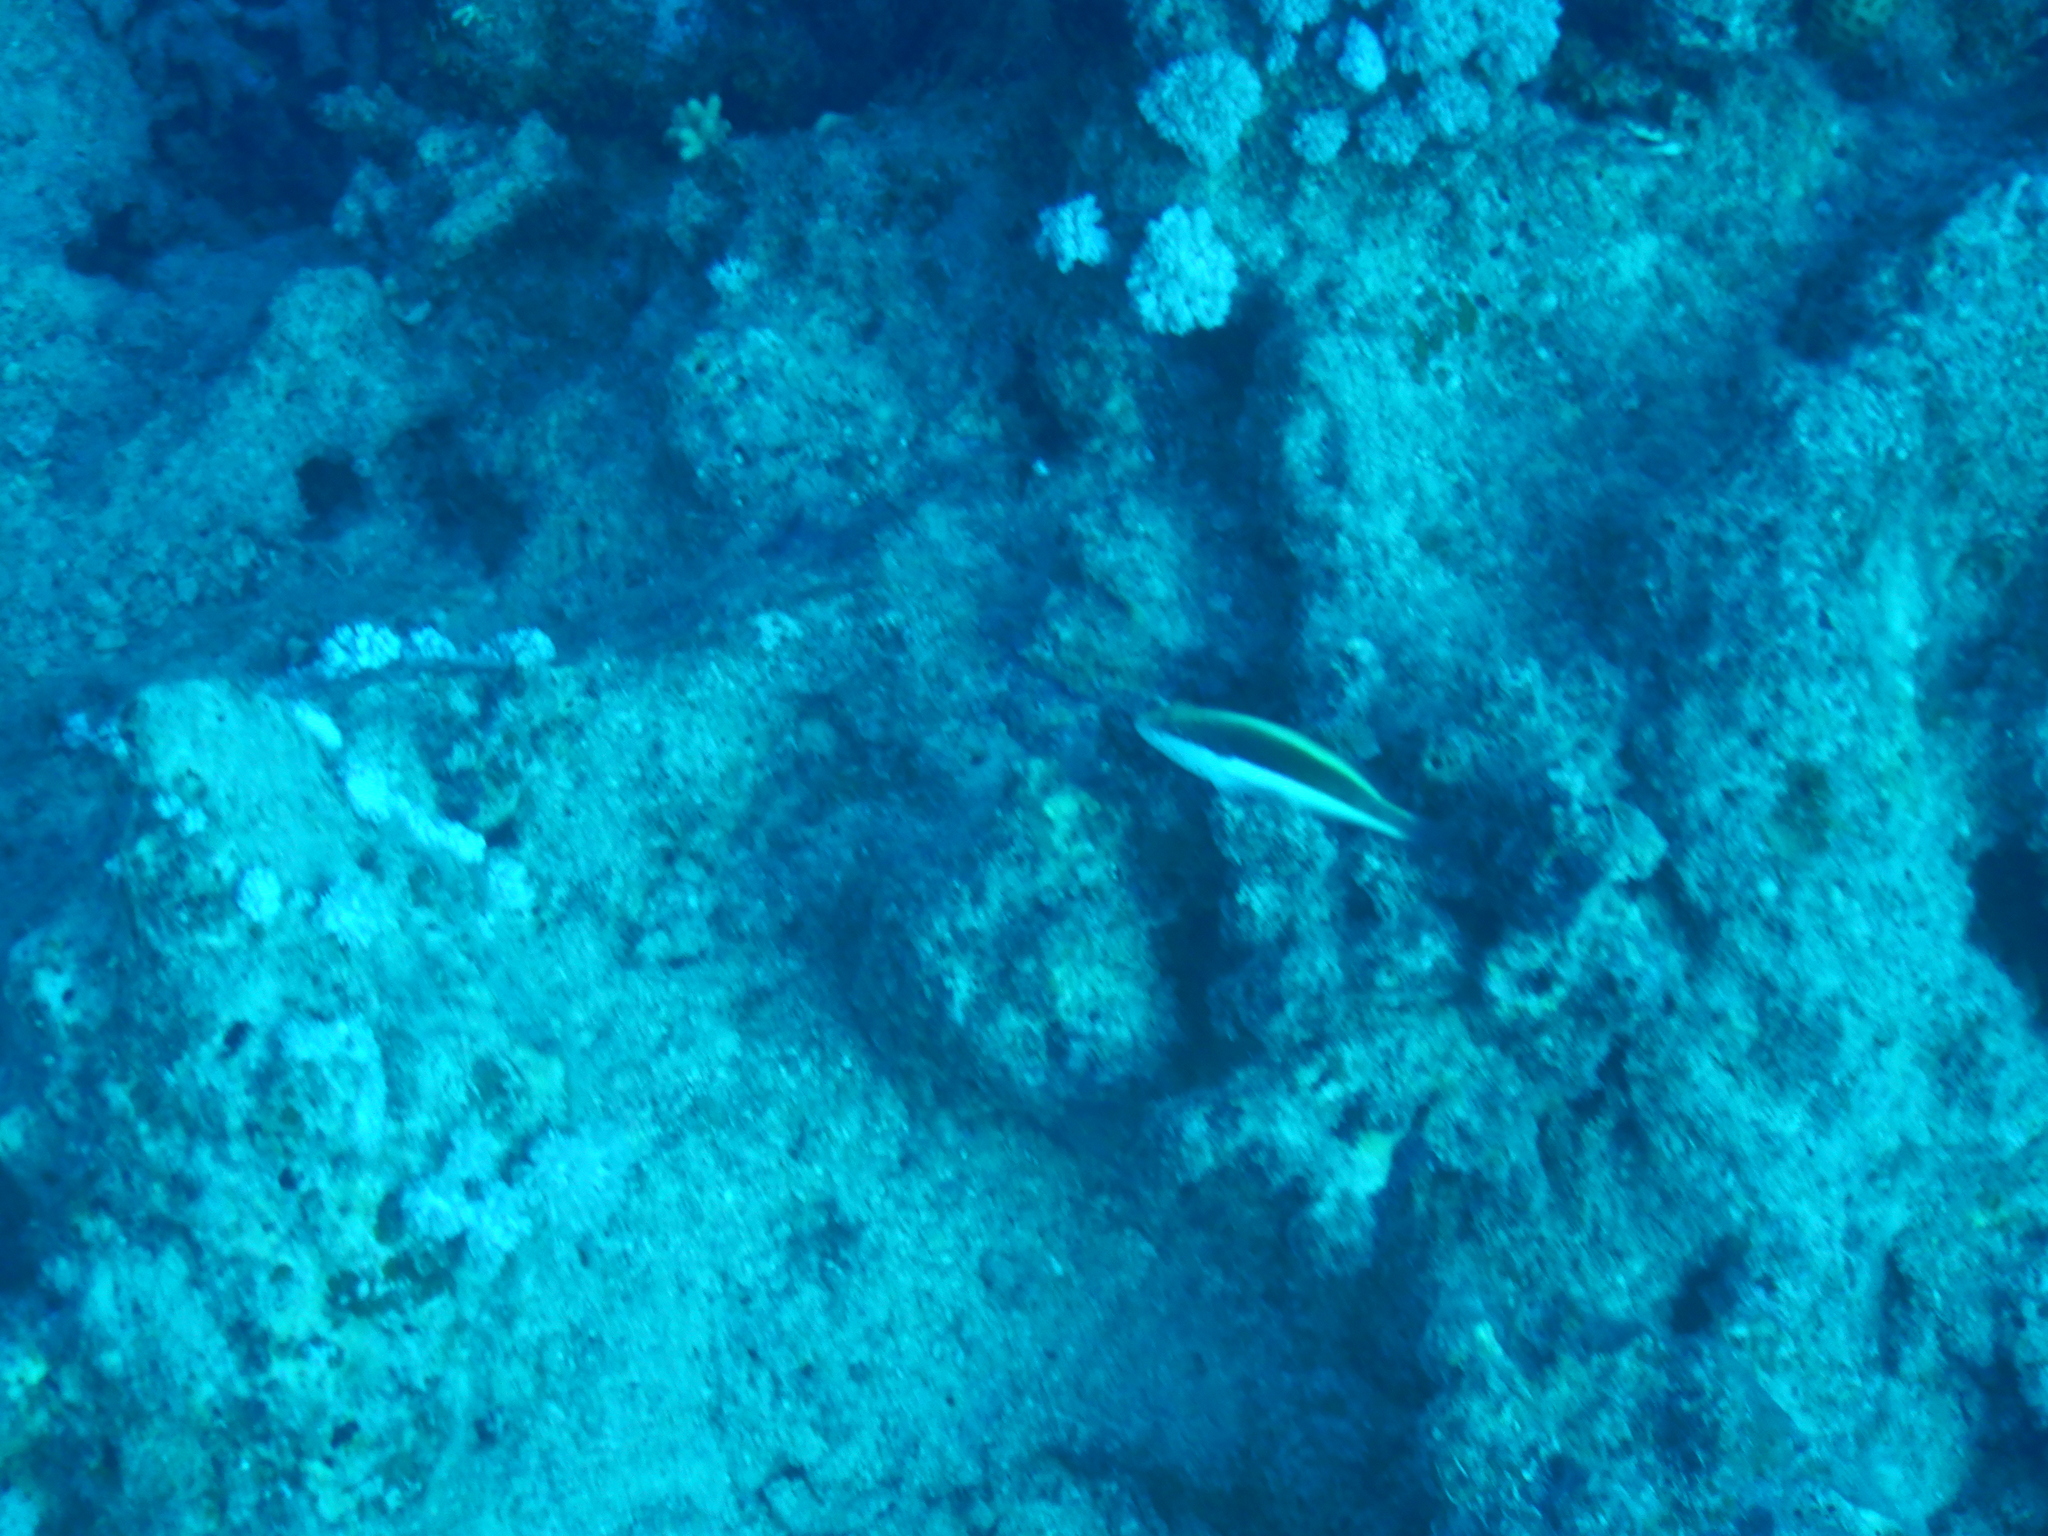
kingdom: Animalia
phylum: Chordata
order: Perciformes
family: Cirrhitidae
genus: Paracirrhites
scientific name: Paracirrhites forsteri
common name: Freckled hawkfish
